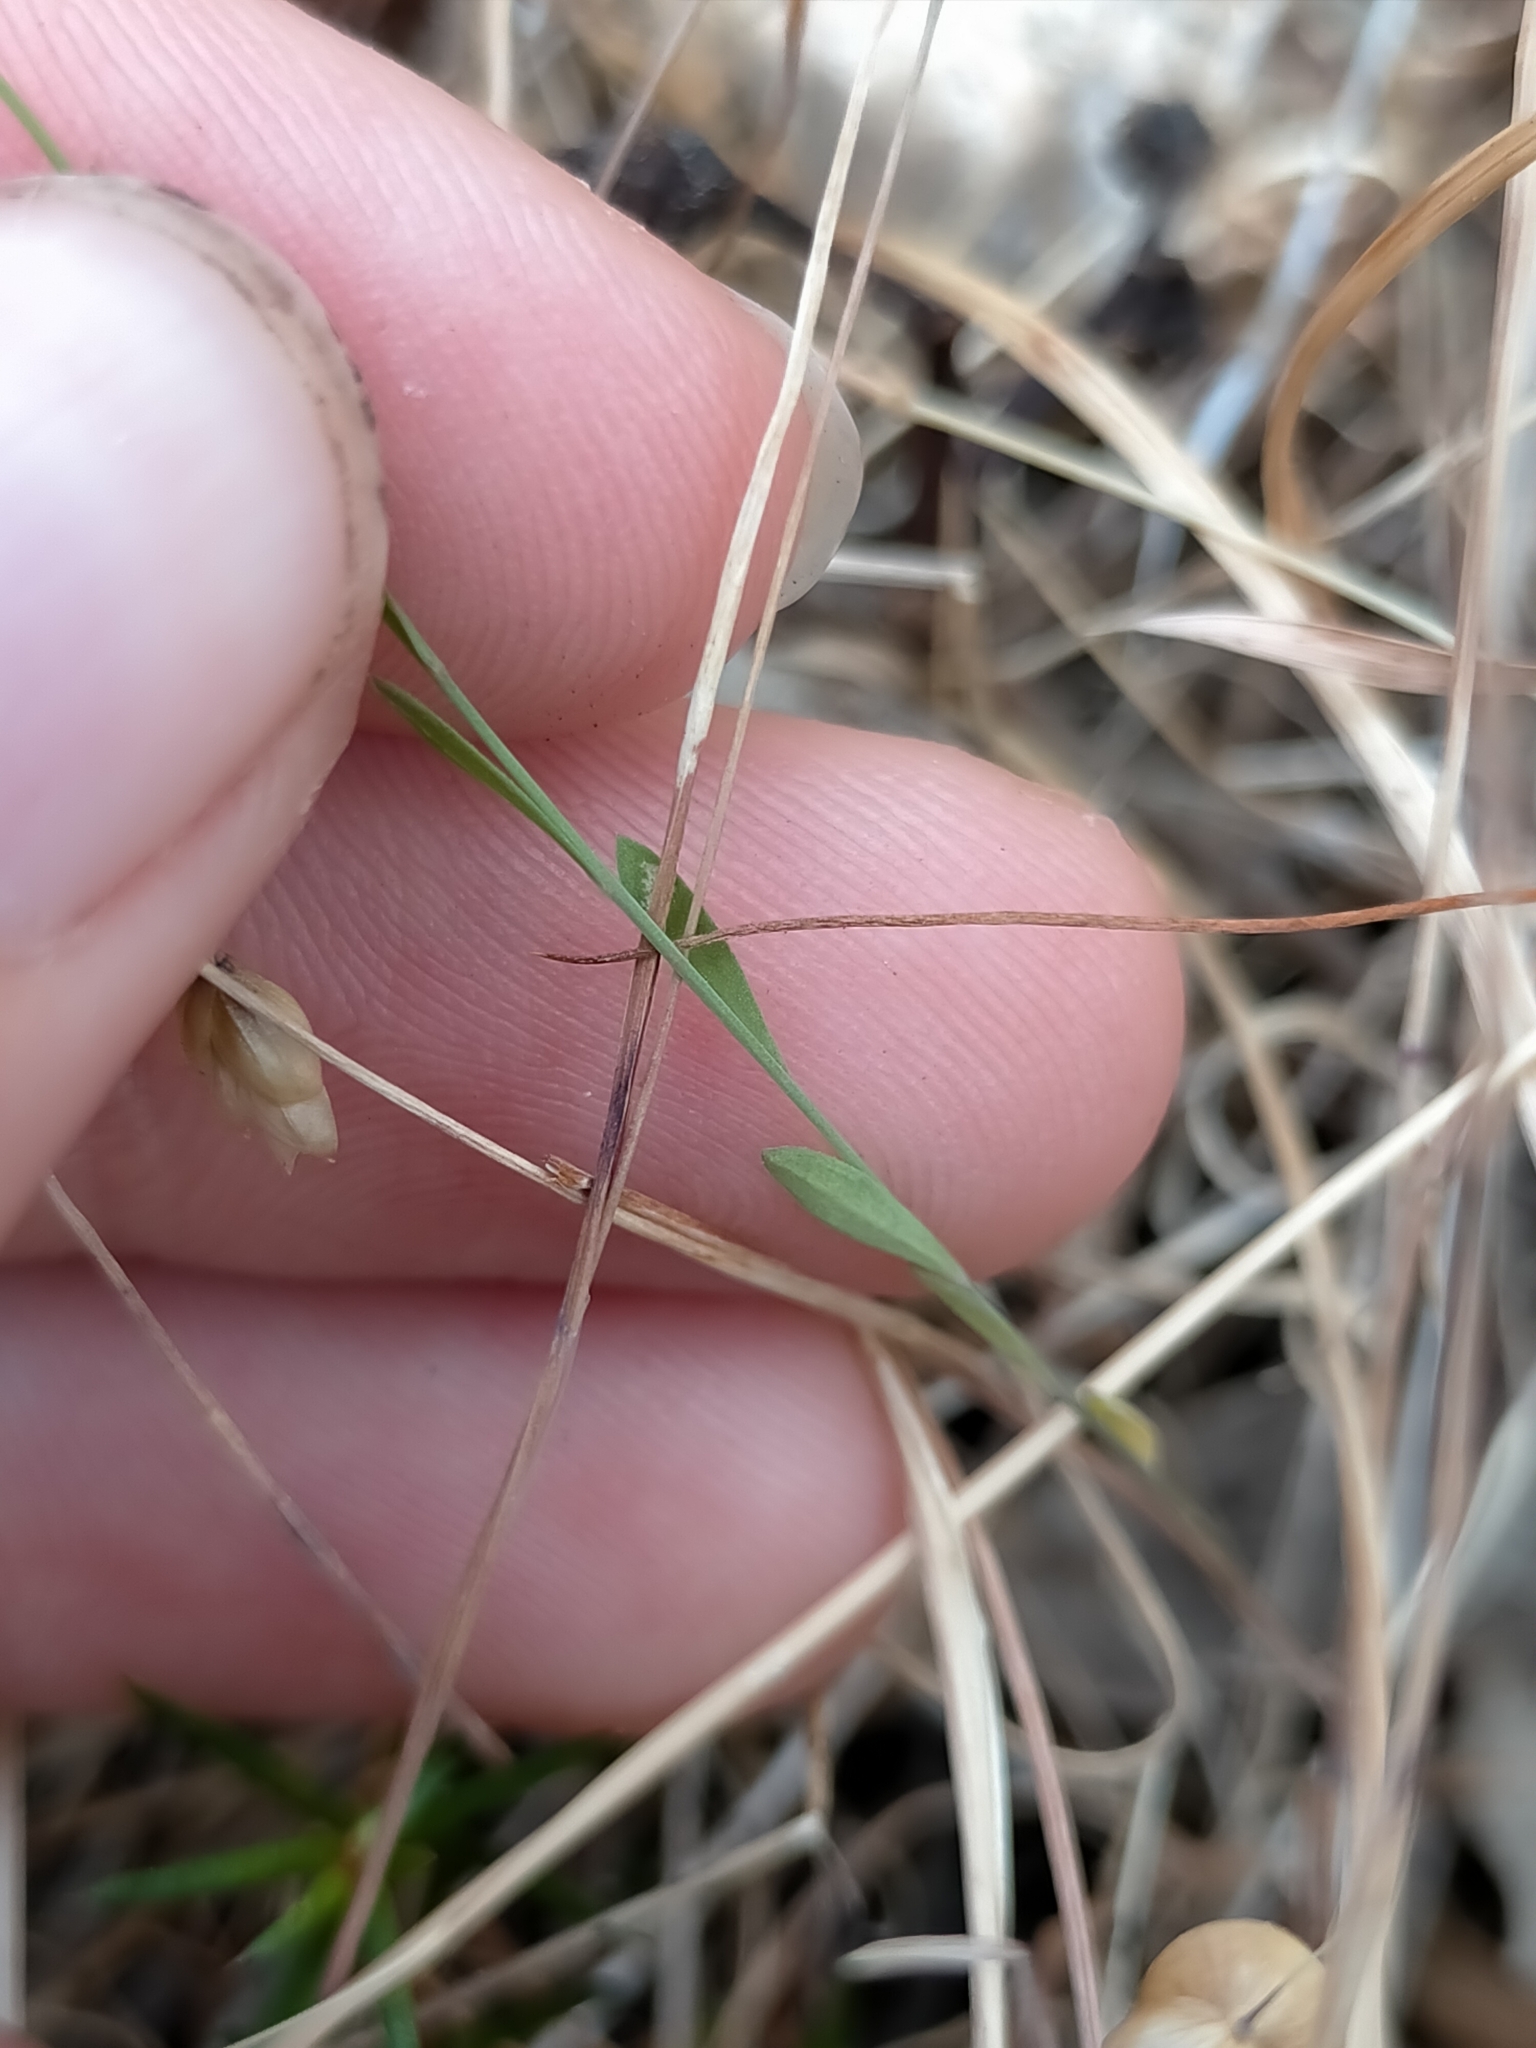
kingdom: Plantae
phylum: Tracheophyta
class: Magnoliopsida
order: Malpighiales
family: Linaceae
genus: Linum
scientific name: Linum trigynum
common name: French flax
